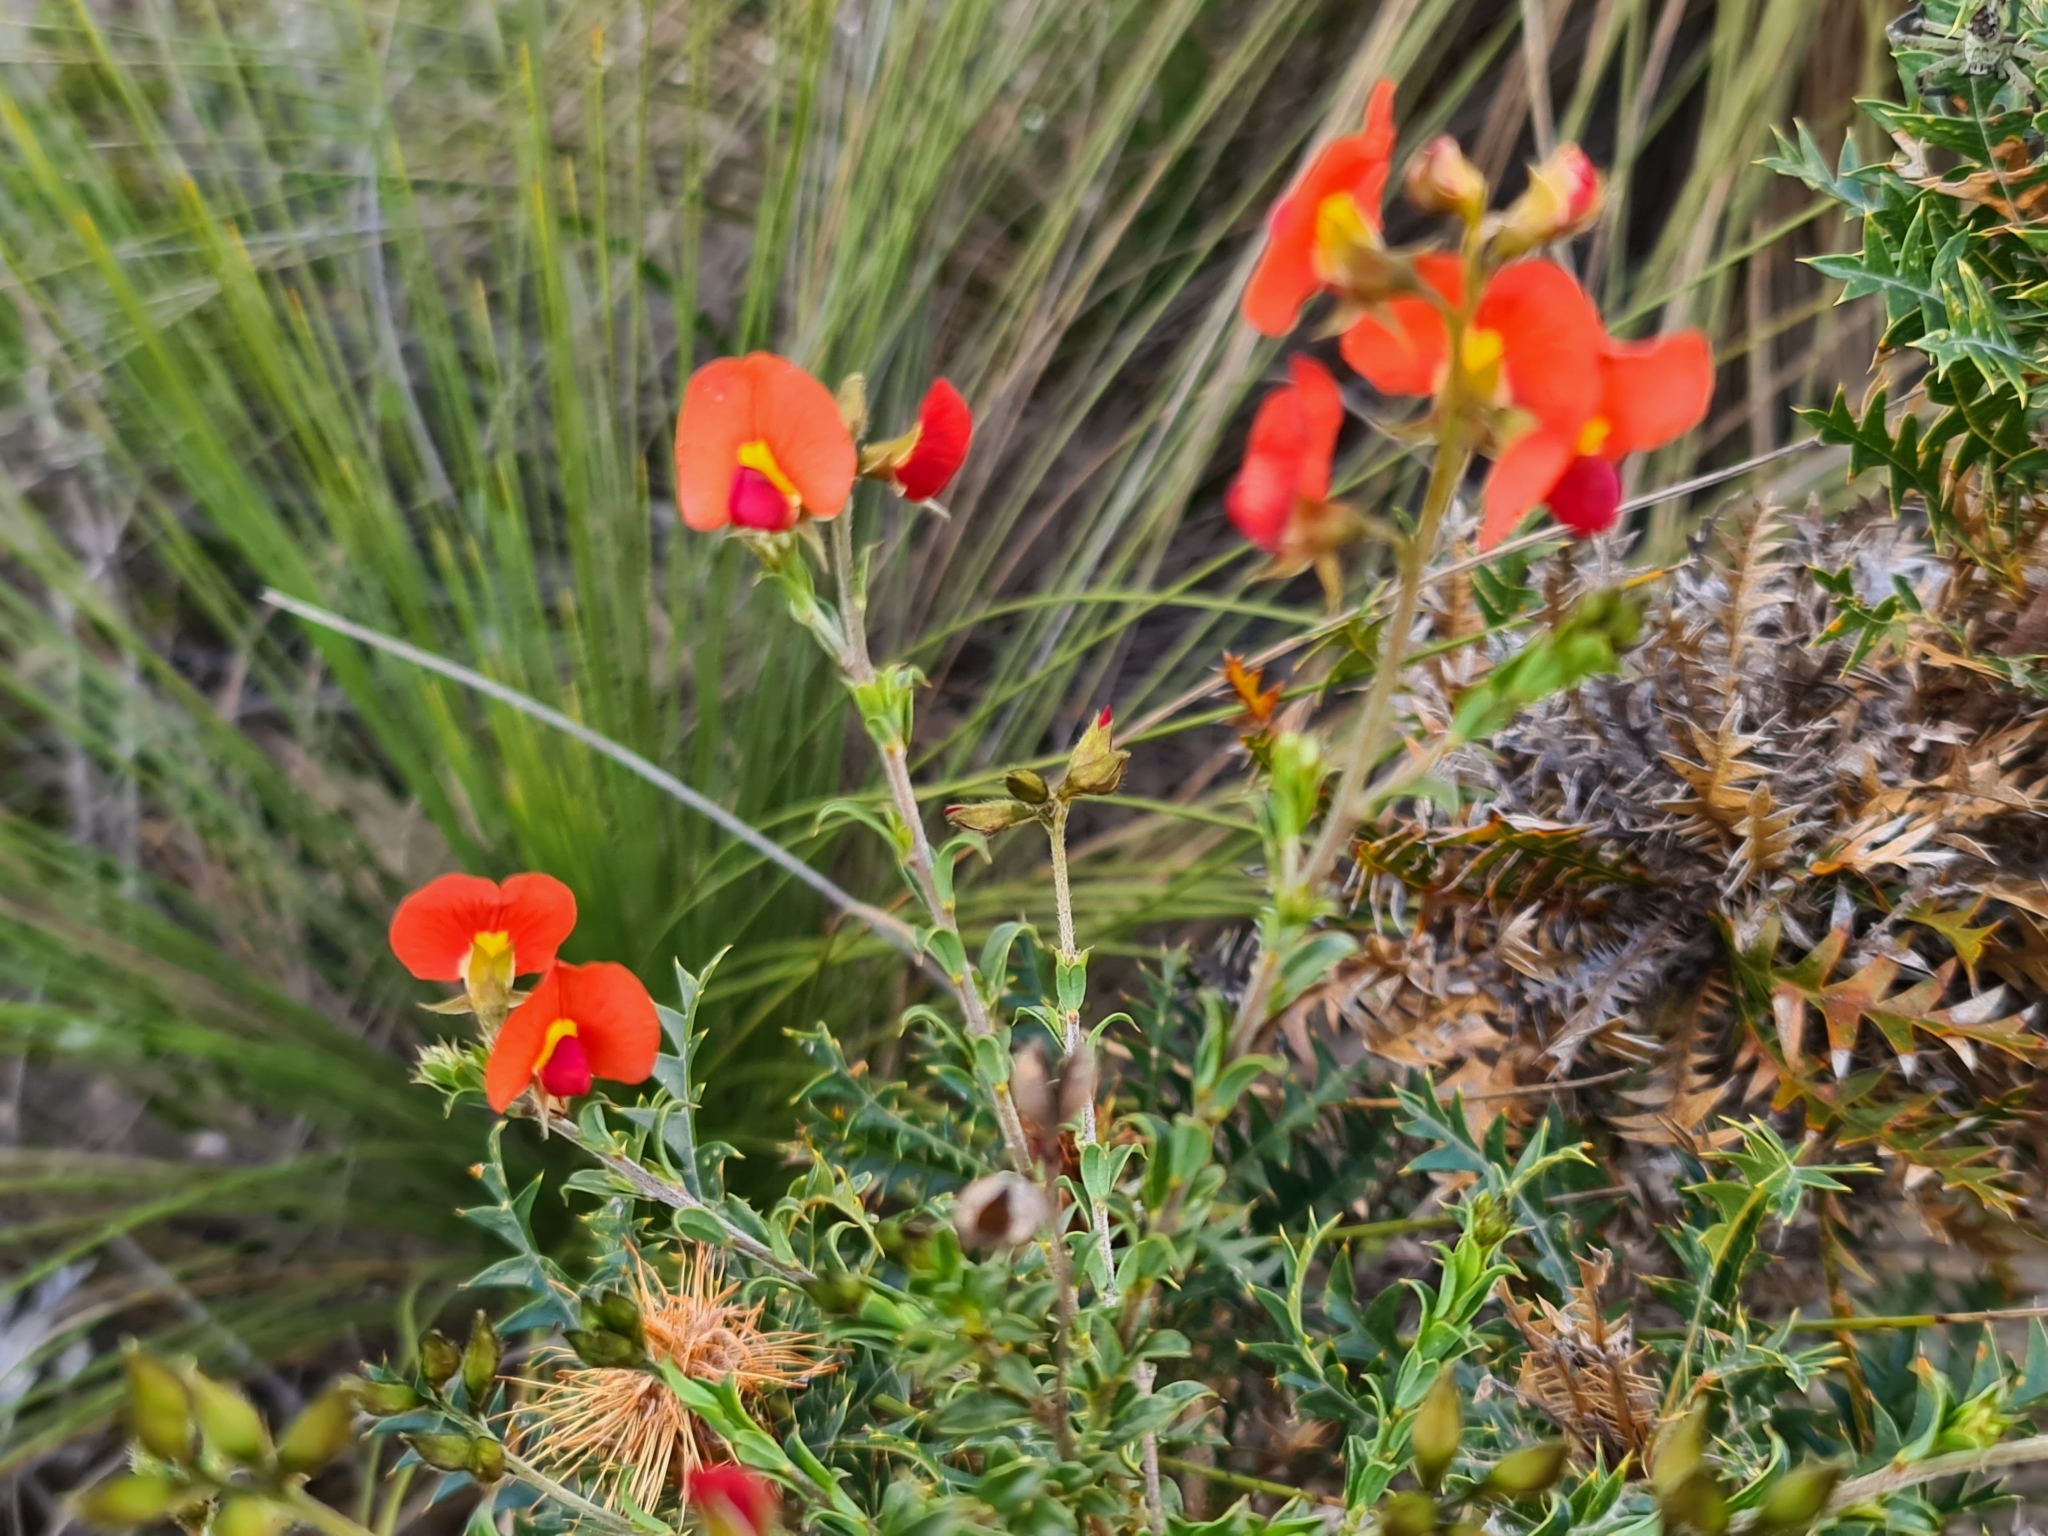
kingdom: Plantae
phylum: Tracheophyta
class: Magnoliopsida
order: Fabales
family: Fabaceae
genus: Chorizema
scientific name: Chorizema dicksonii
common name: Yellow-eyed flame-pea
